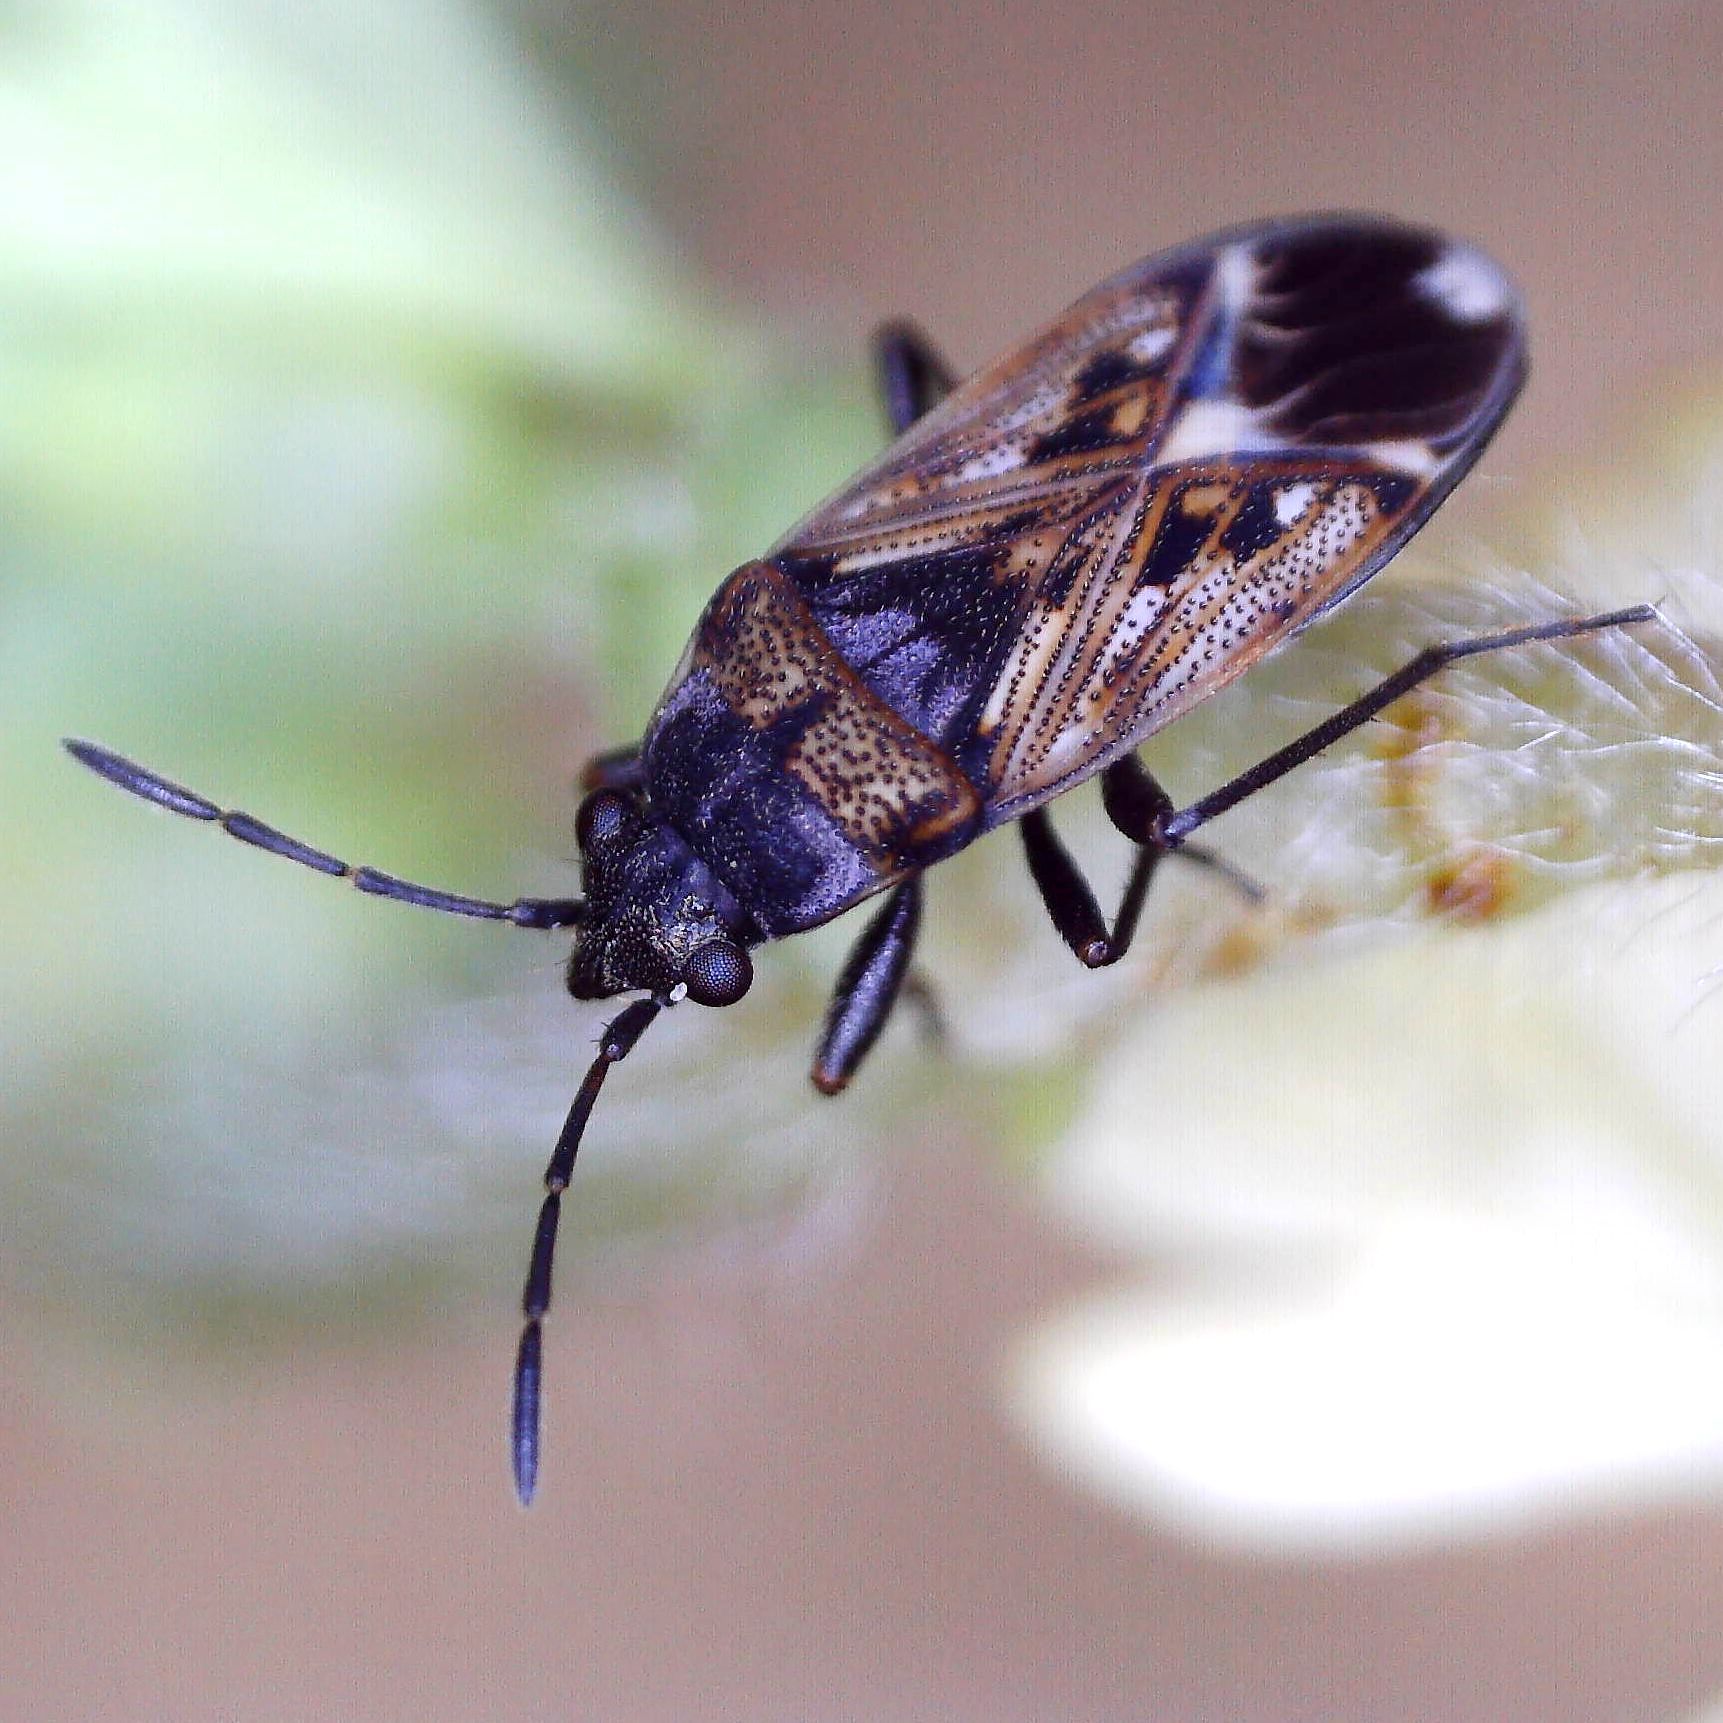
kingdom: Animalia
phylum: Arthropoda
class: Insecta
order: Hemiptera
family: Rhyparochromidae
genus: Peritrechus
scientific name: Peritrechus lundi
